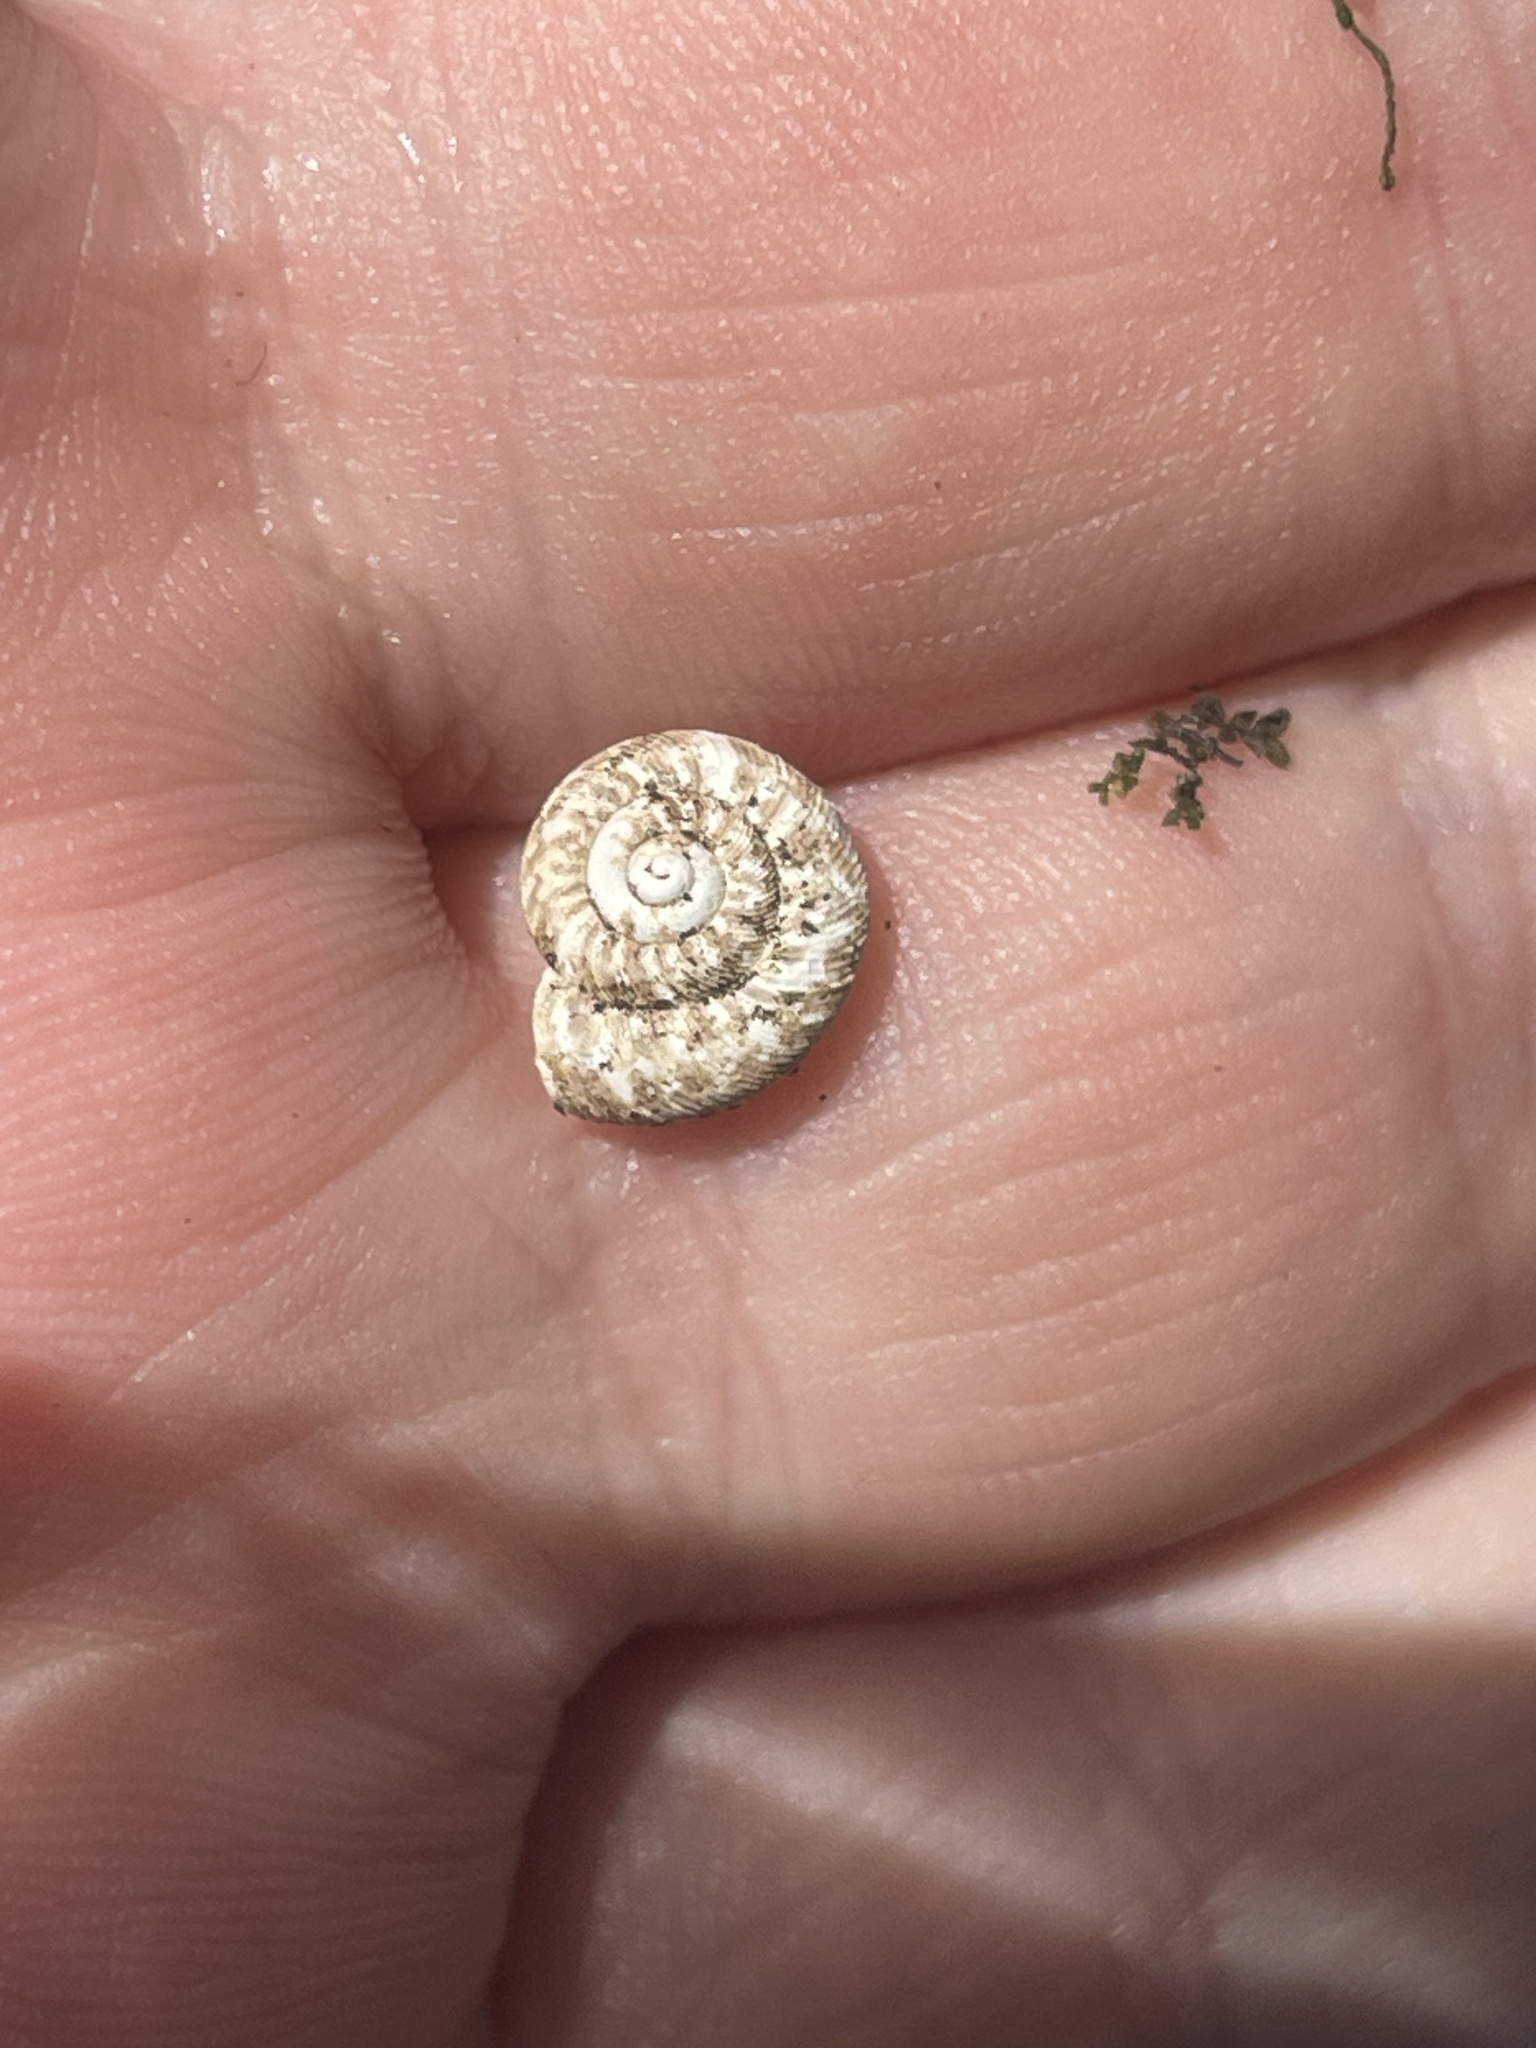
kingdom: Animalia
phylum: Mollusca
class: Gastropoda
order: Stylommatophora
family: Discidae
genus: Anguispira
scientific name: Anguispira alternata
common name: Flamed tigersnail
